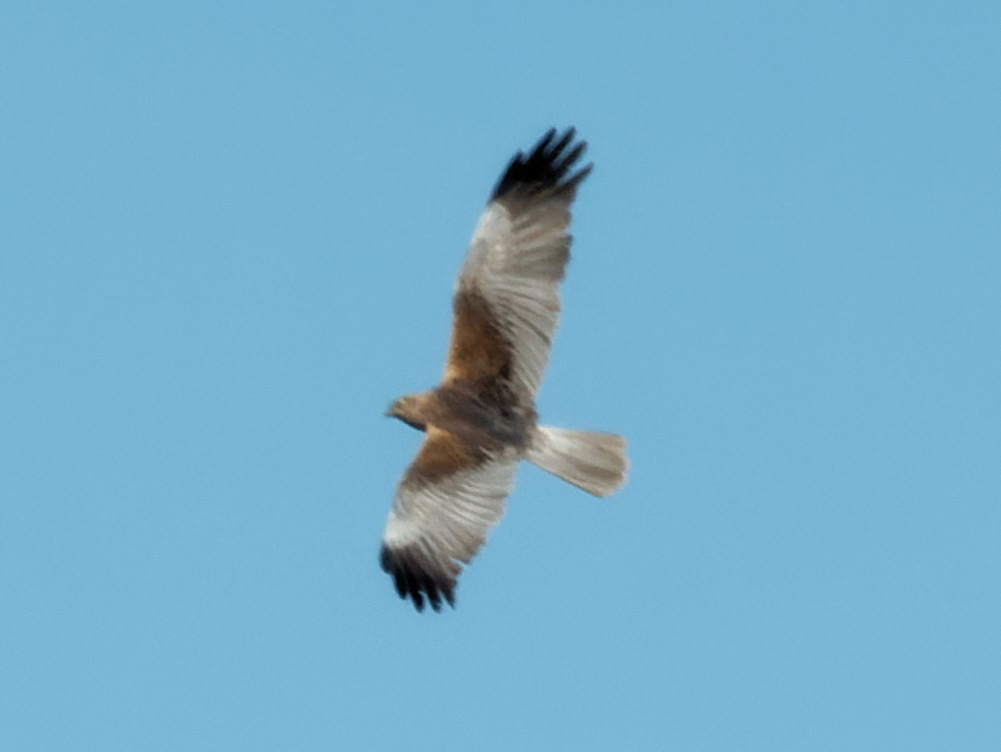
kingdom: Animalia
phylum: Chordata
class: Aves
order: Accipitriformes
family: Accipitridae
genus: Circus
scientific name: Circus aeruginosus
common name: Western marsh harrier
